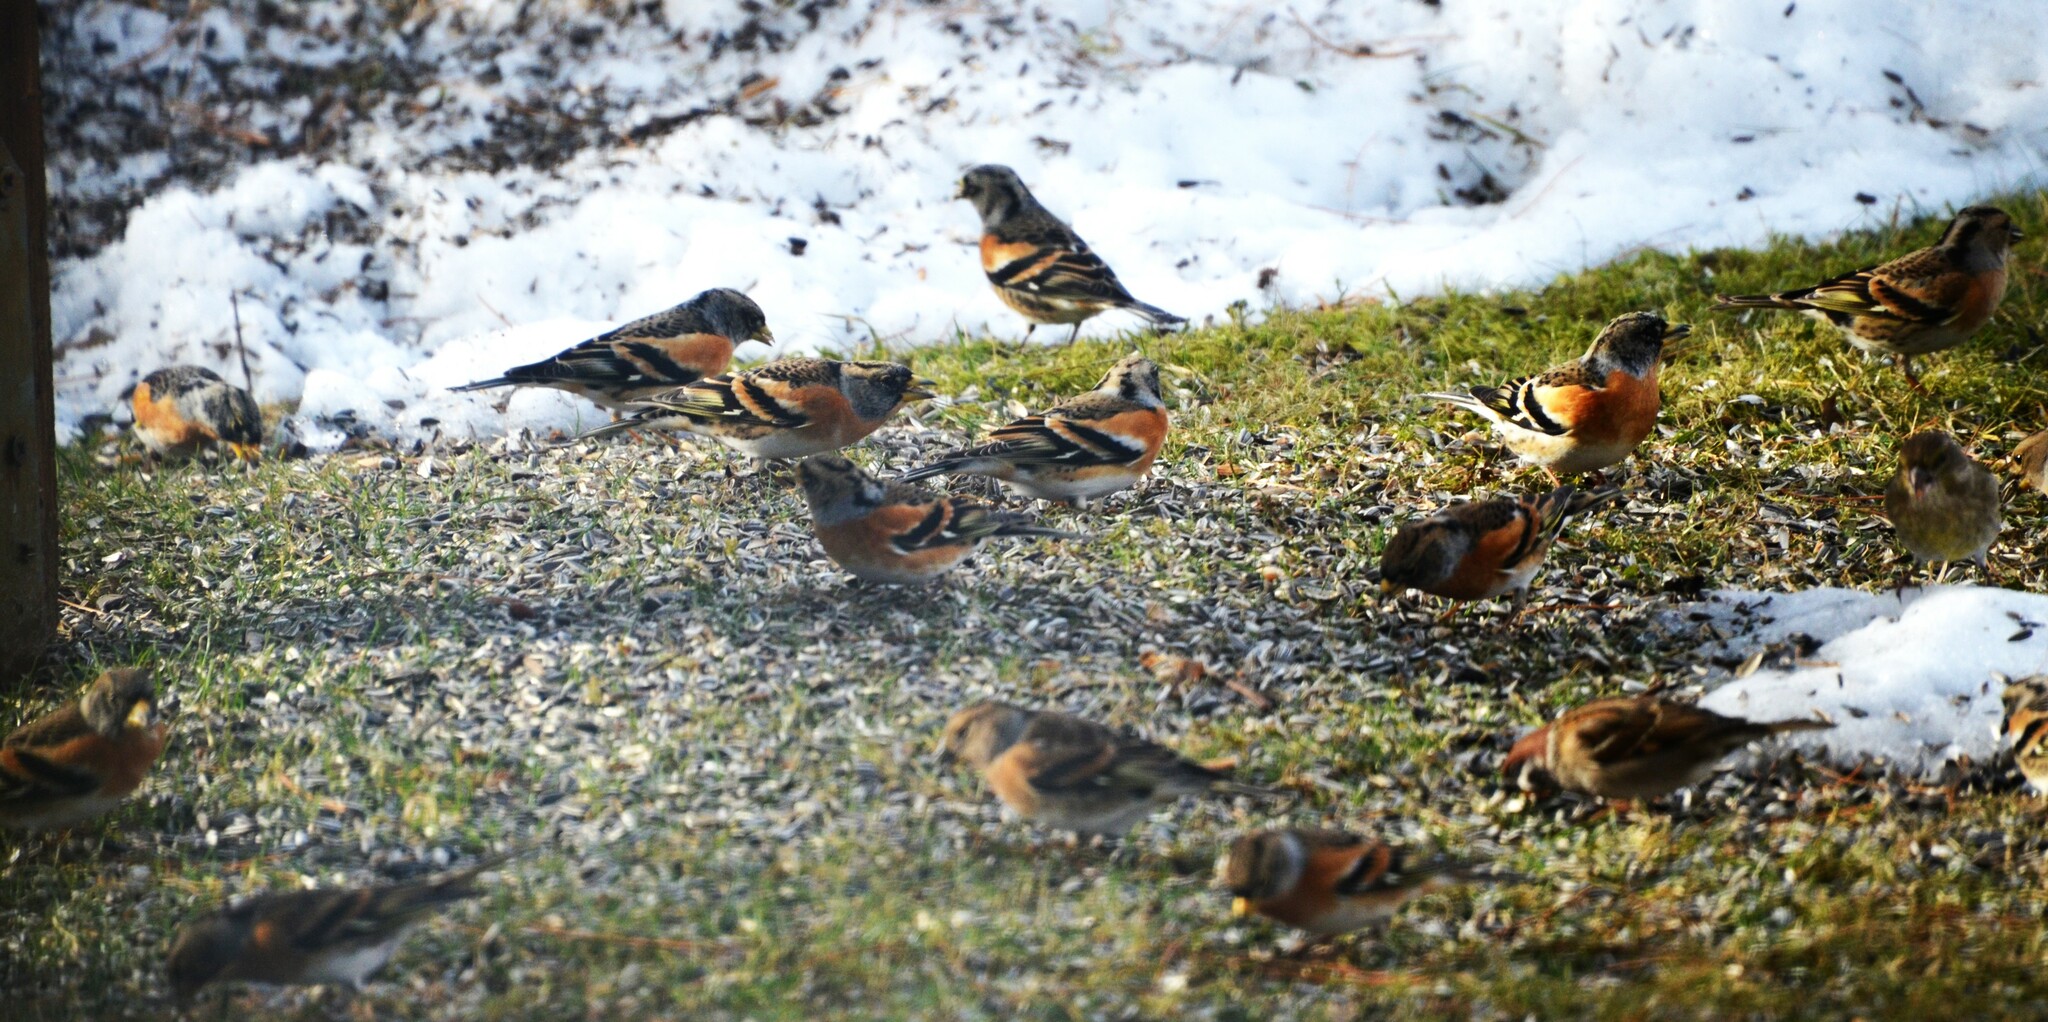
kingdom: Animalia
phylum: Chordata
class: Aves
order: Passeriformes
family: Fringillidae
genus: Fringilla
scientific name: Fringilla montifringilla
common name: Brambling
